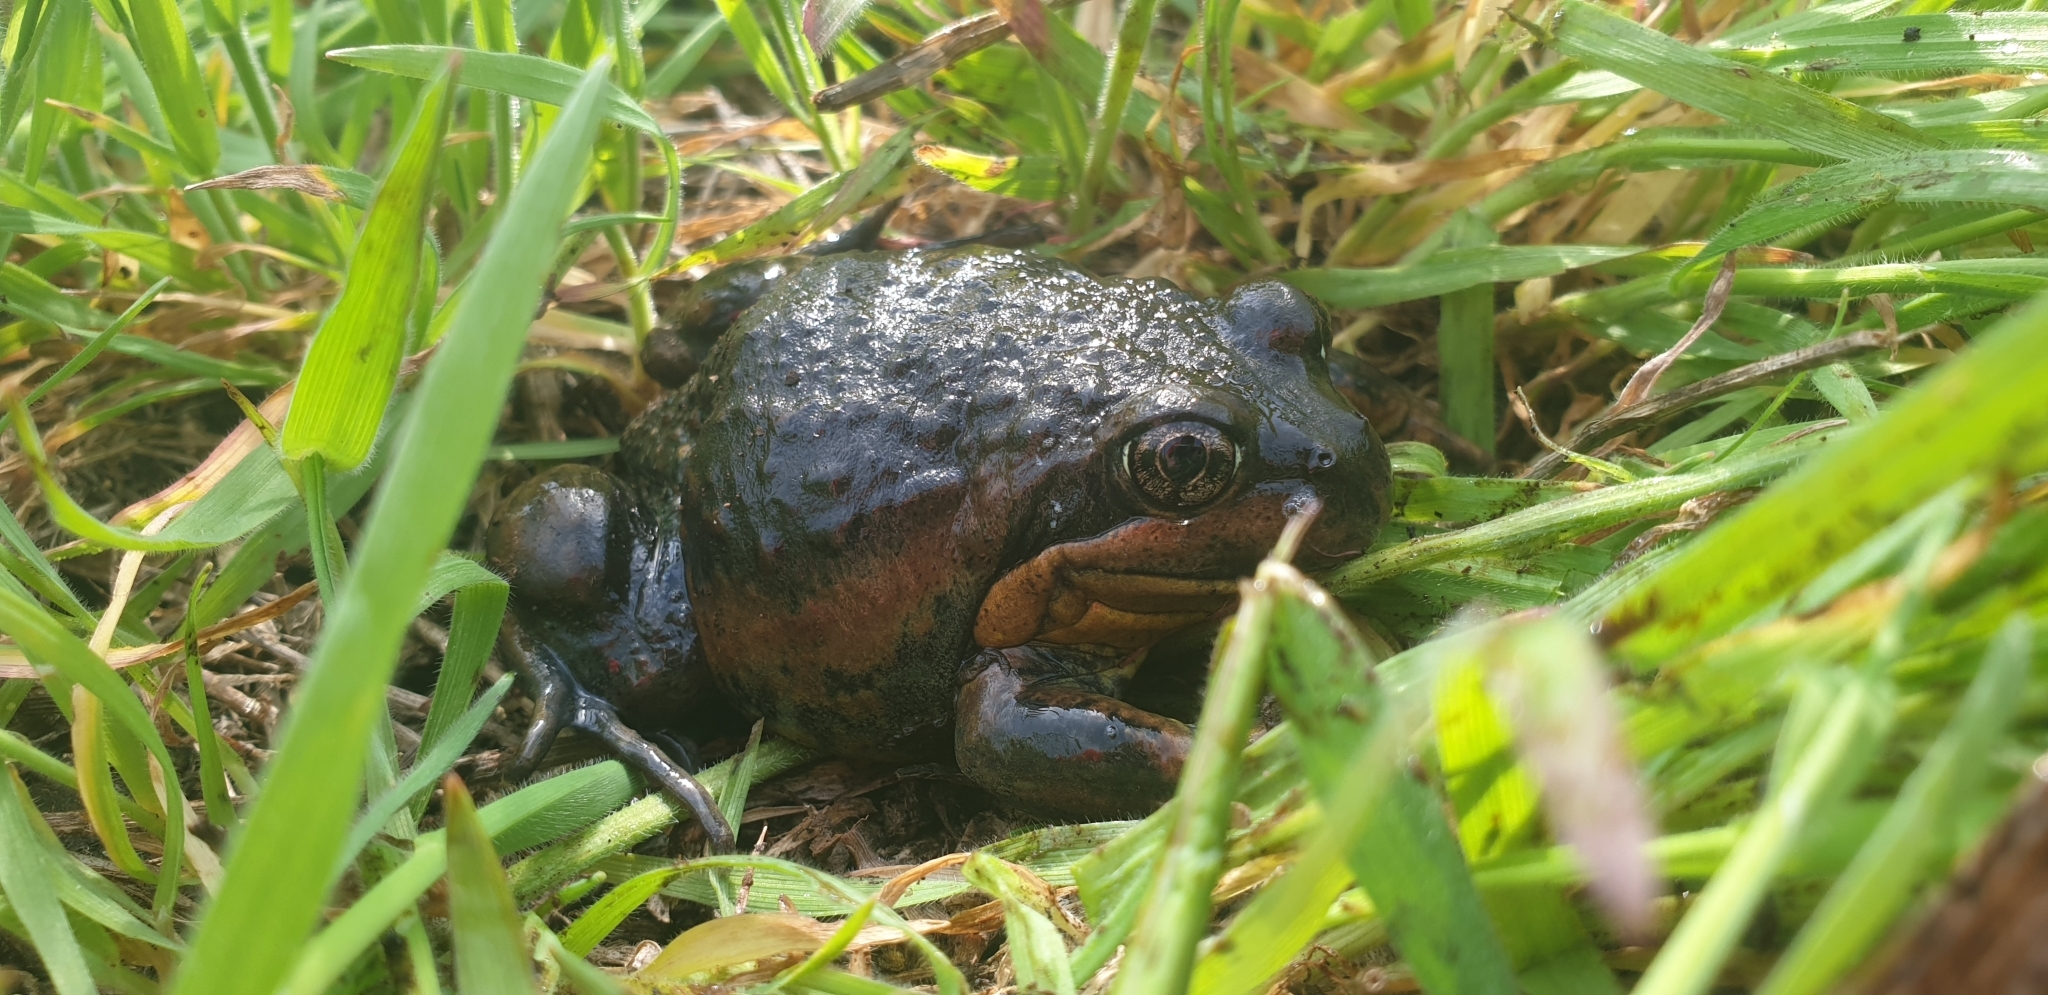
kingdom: Animalia
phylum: Chordata
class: Amphibia
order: Anura
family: Limnodynastidae
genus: Limnodynastes
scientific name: Limnodynastes dumerilii
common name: Banjo frog
